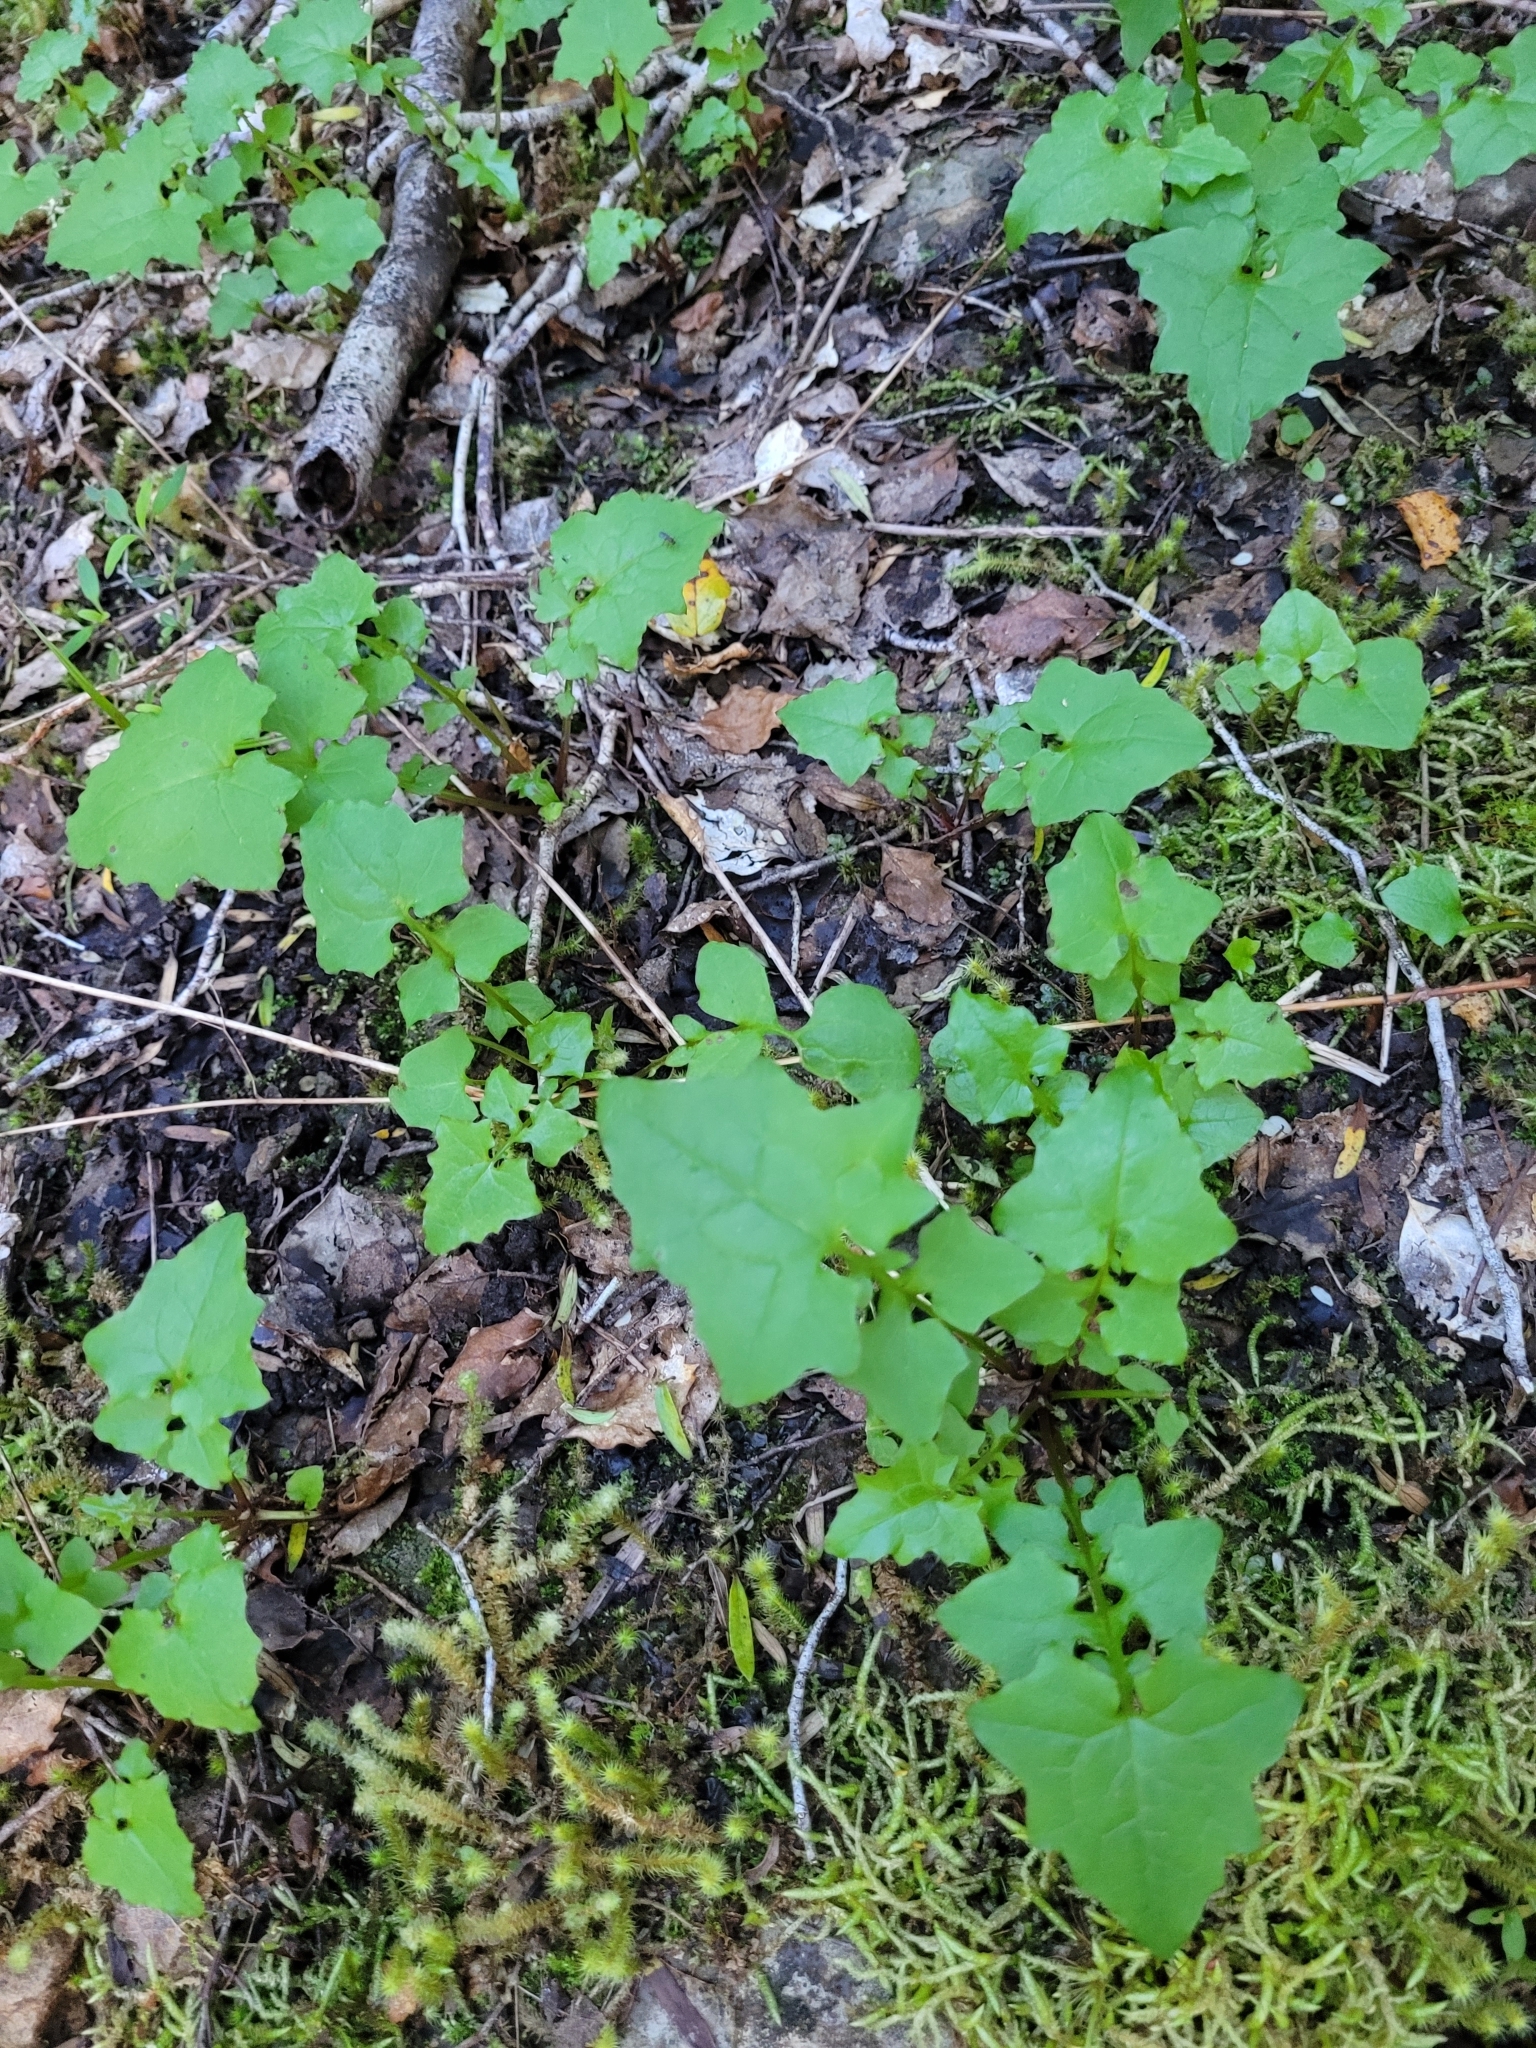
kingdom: Plantae
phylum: Tracheophyta
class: Magnoliopsida
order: Asterales
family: Asteraceae
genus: Mycelis
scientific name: Mycelis muralis
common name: Wall lettuce
